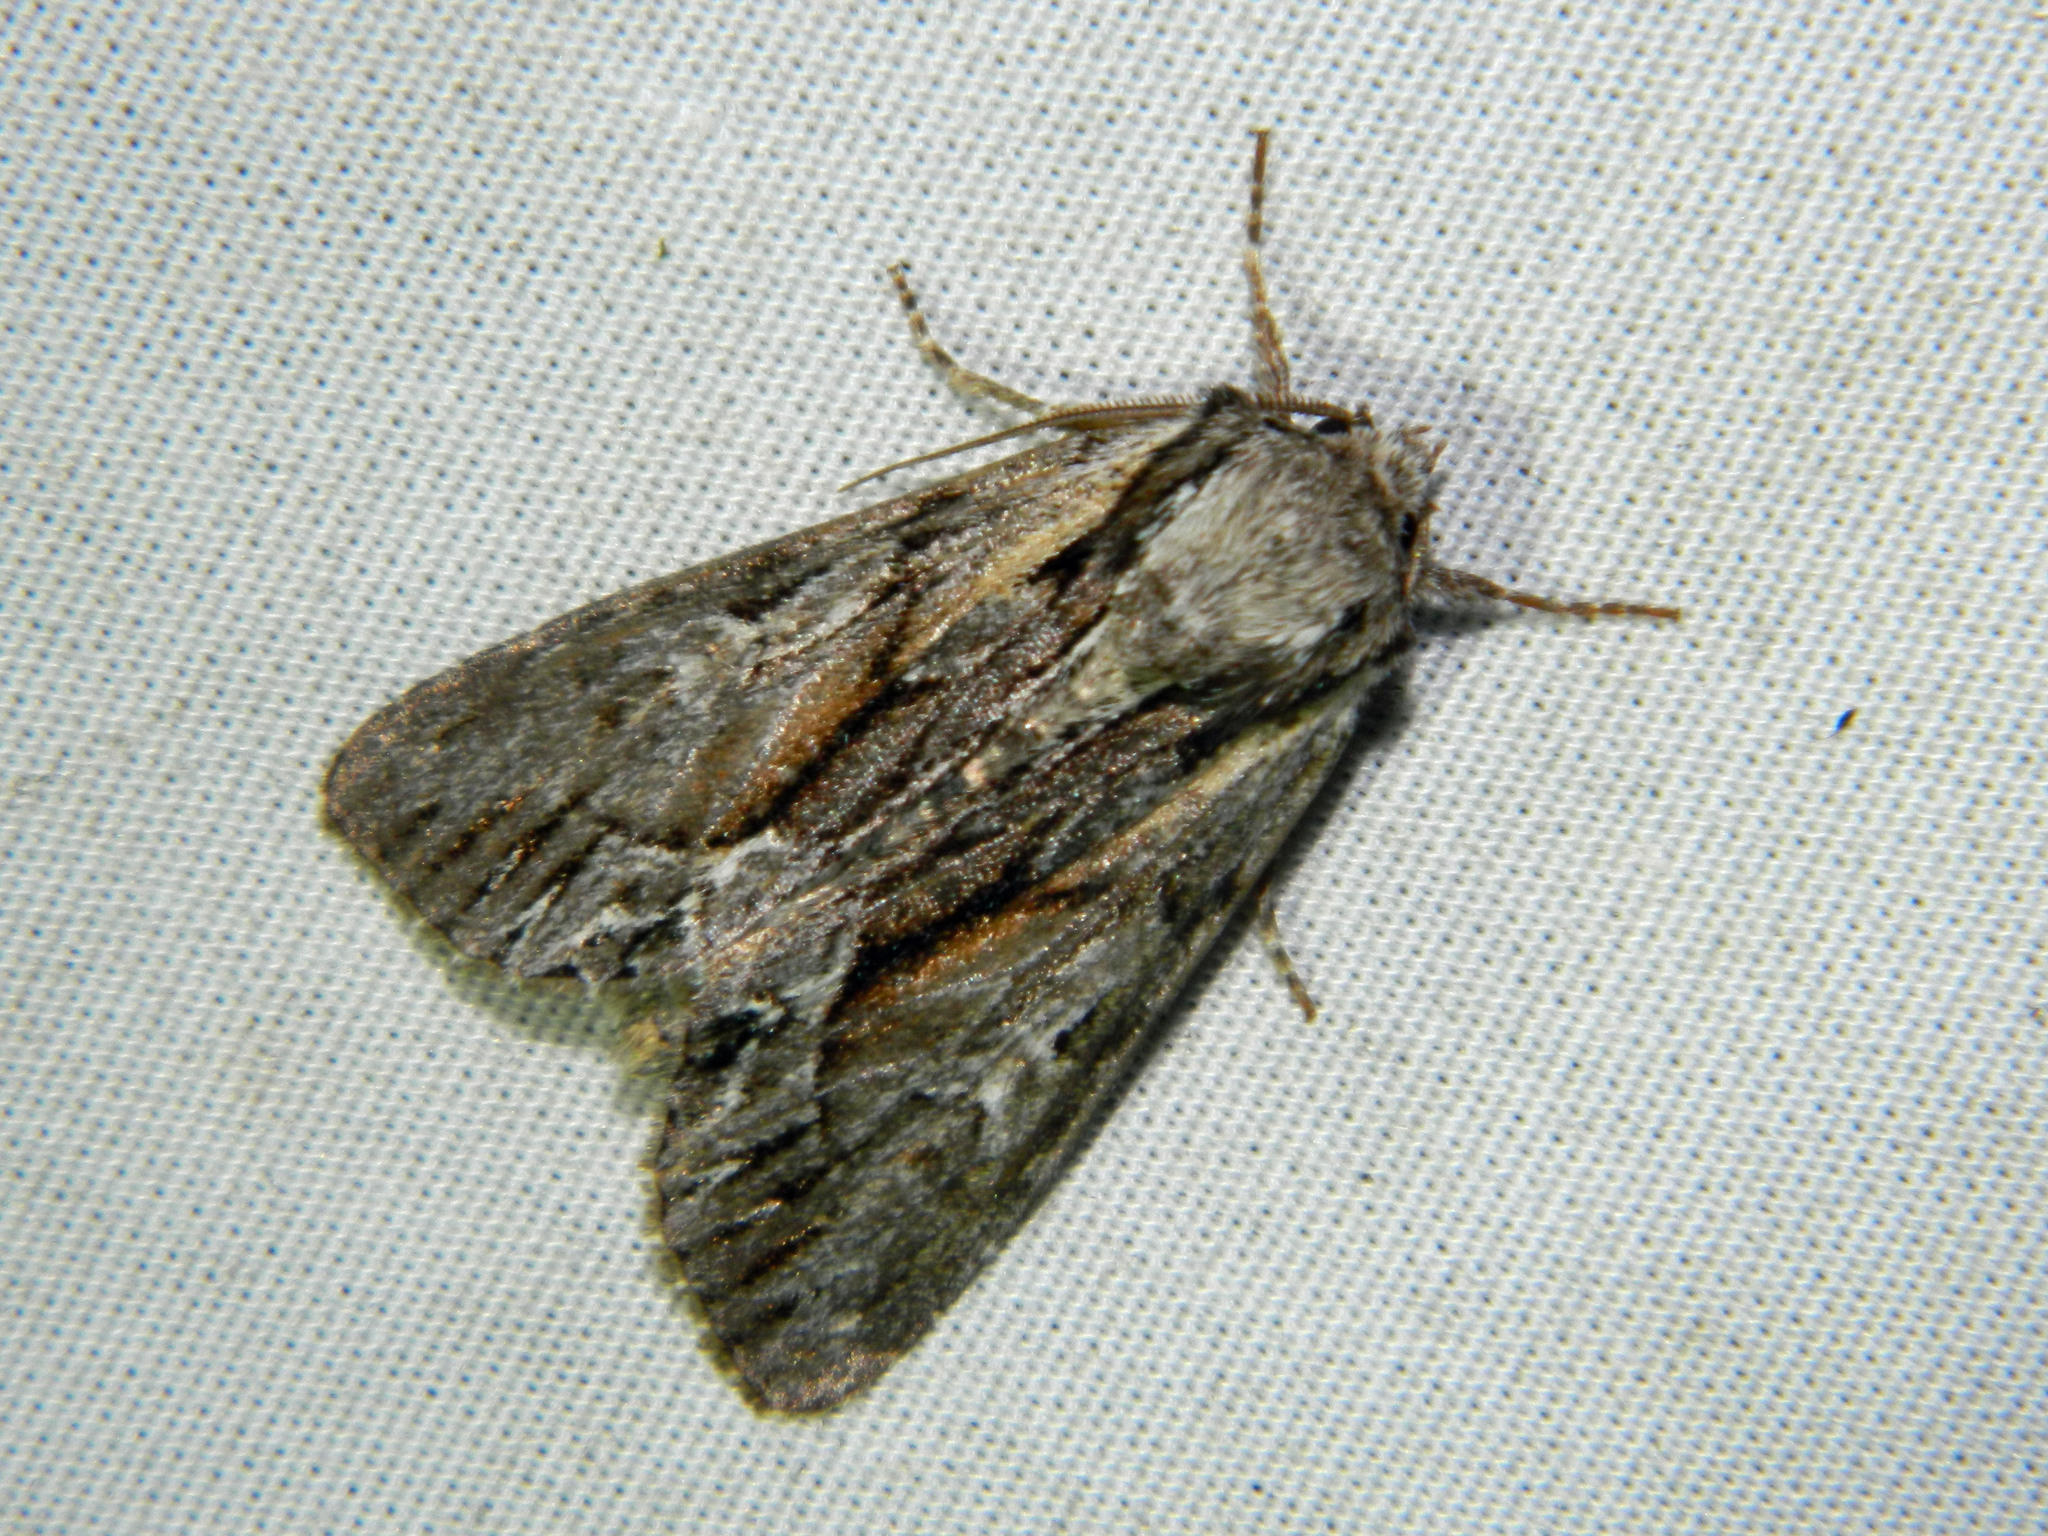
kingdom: Animalia
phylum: Arthropoda
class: Insecta
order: Lepidoptera
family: Noctuidae
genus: Hyppa
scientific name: Hyppa xylinoides
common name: Common hyppa moth
